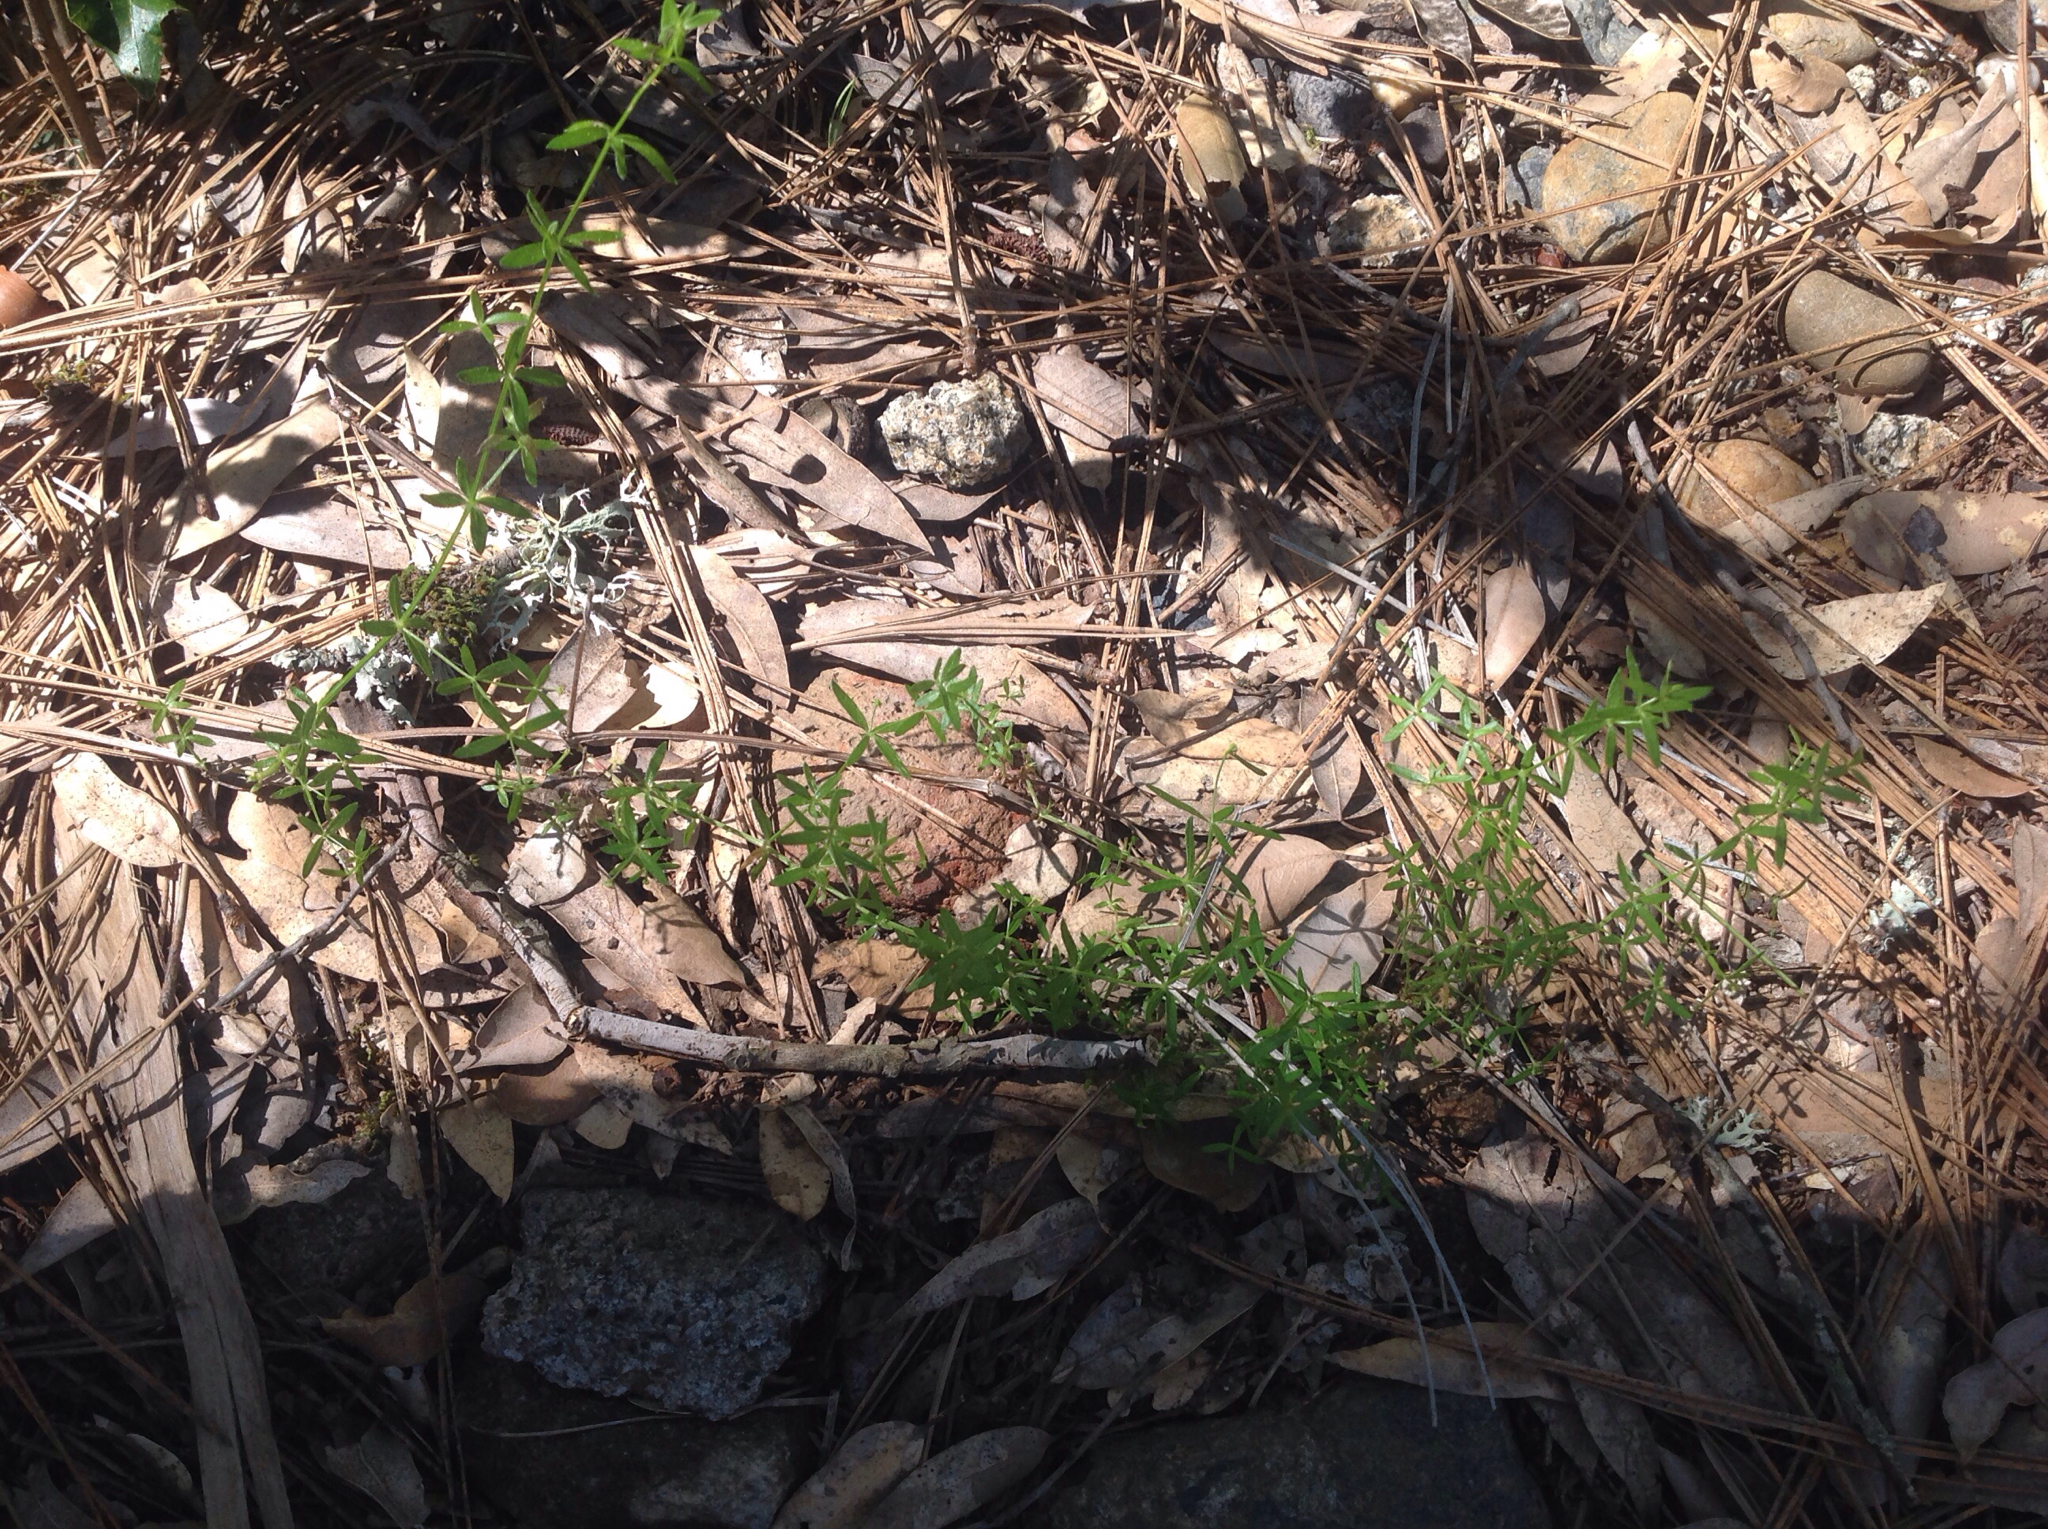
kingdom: Plantae
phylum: Tracheophyta
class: Magnoliopsida
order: Gentianales
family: Rubiaceae
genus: Galium
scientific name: Galium porrigens
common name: Climbing bedstraw
